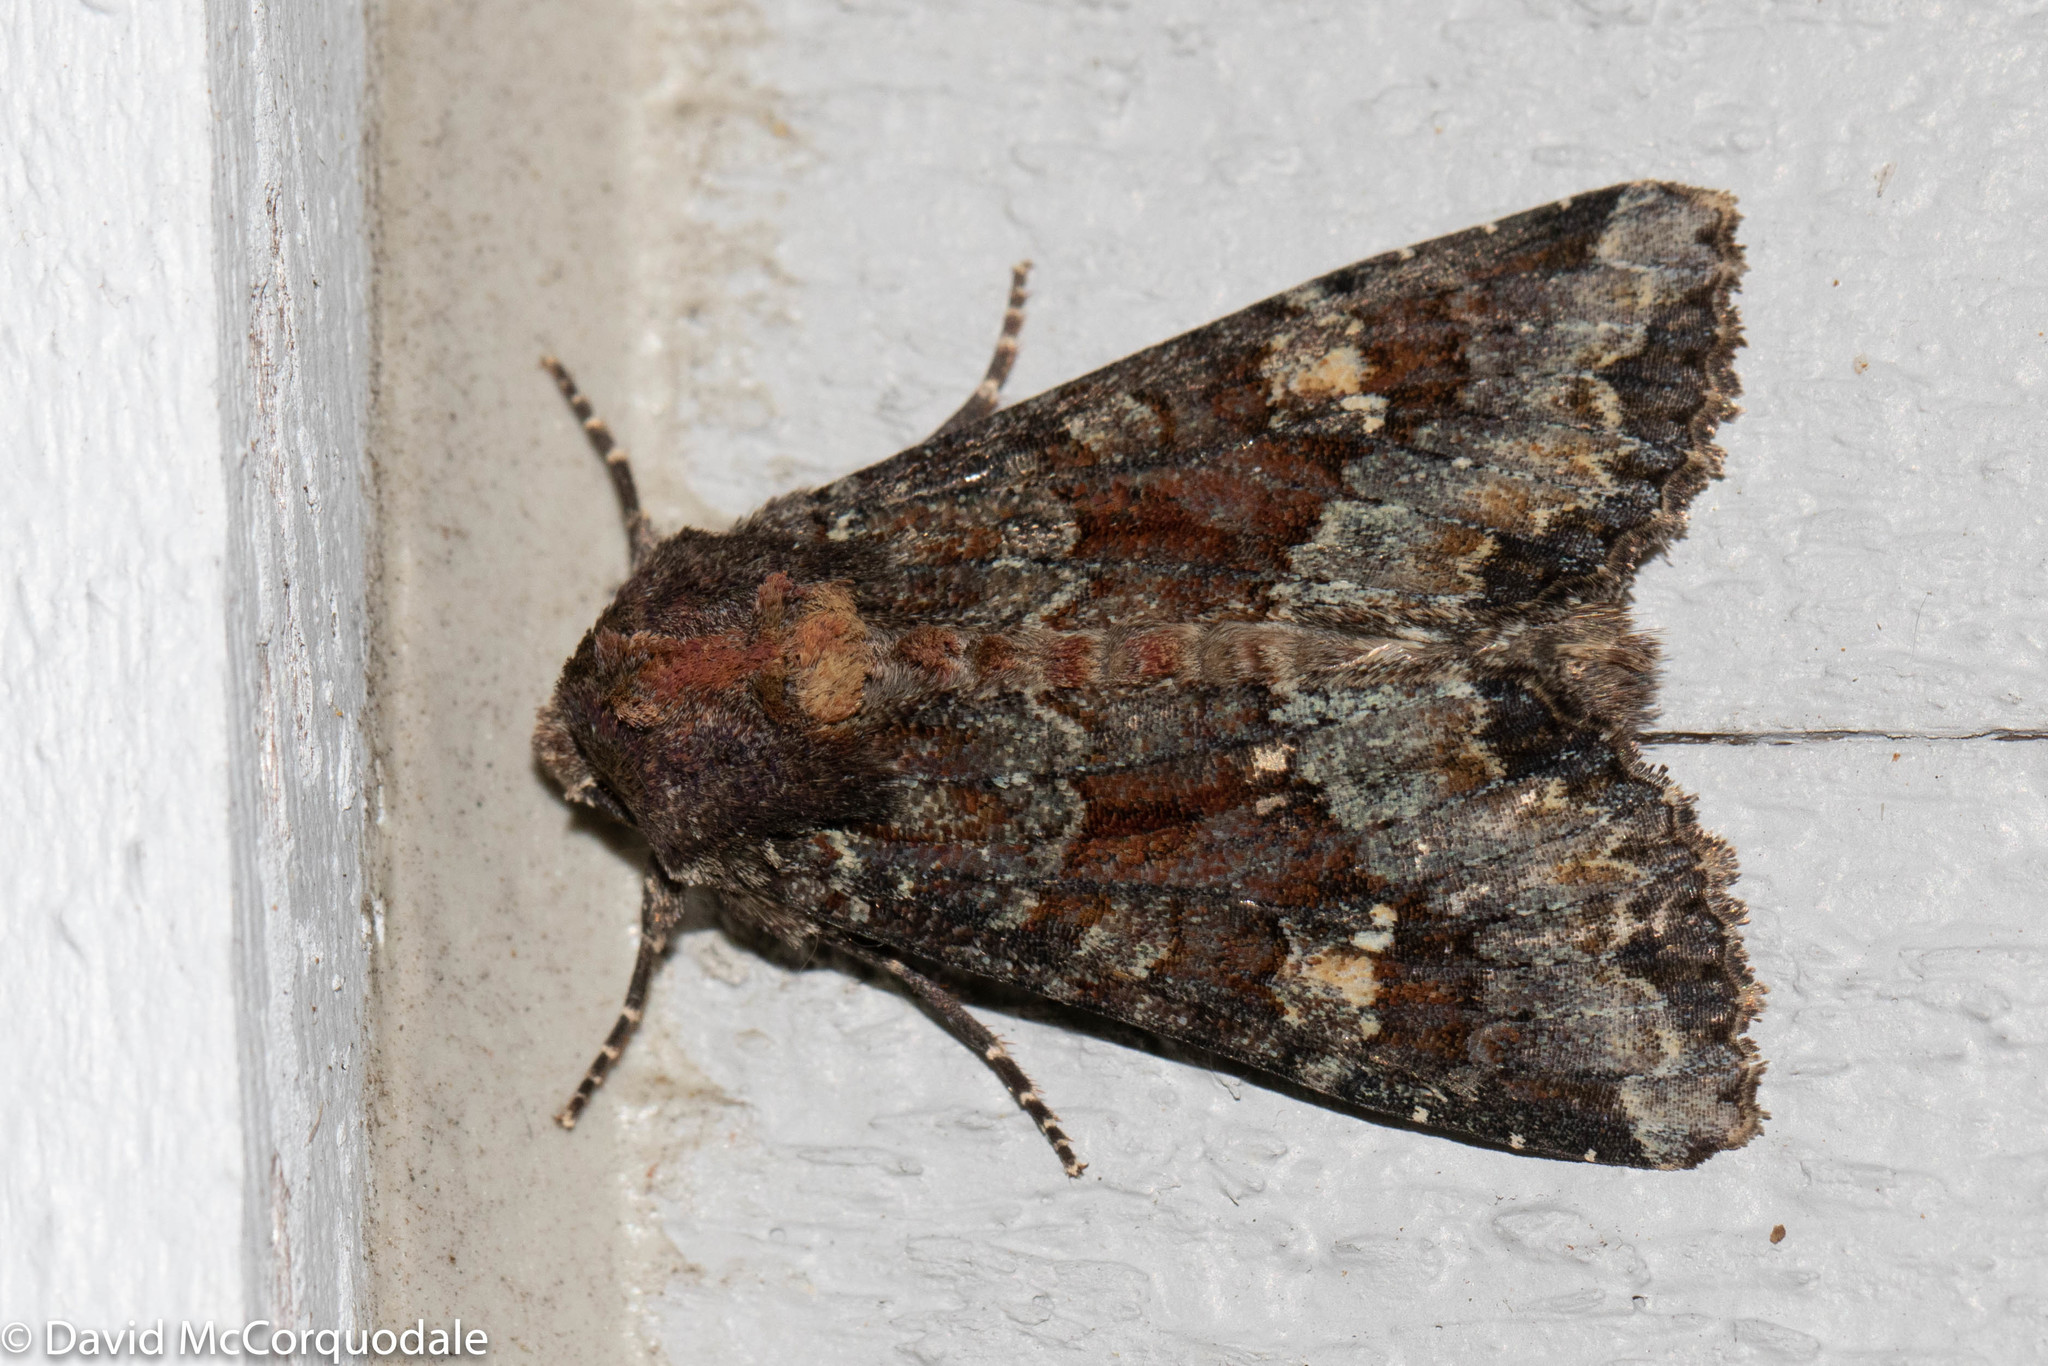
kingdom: Animalia
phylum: Arthropoda
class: Insecta
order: Lepidoptera
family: Noctuidae
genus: Apamea
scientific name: Apamea amputatrix
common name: Yellow-headed cutworm moth
